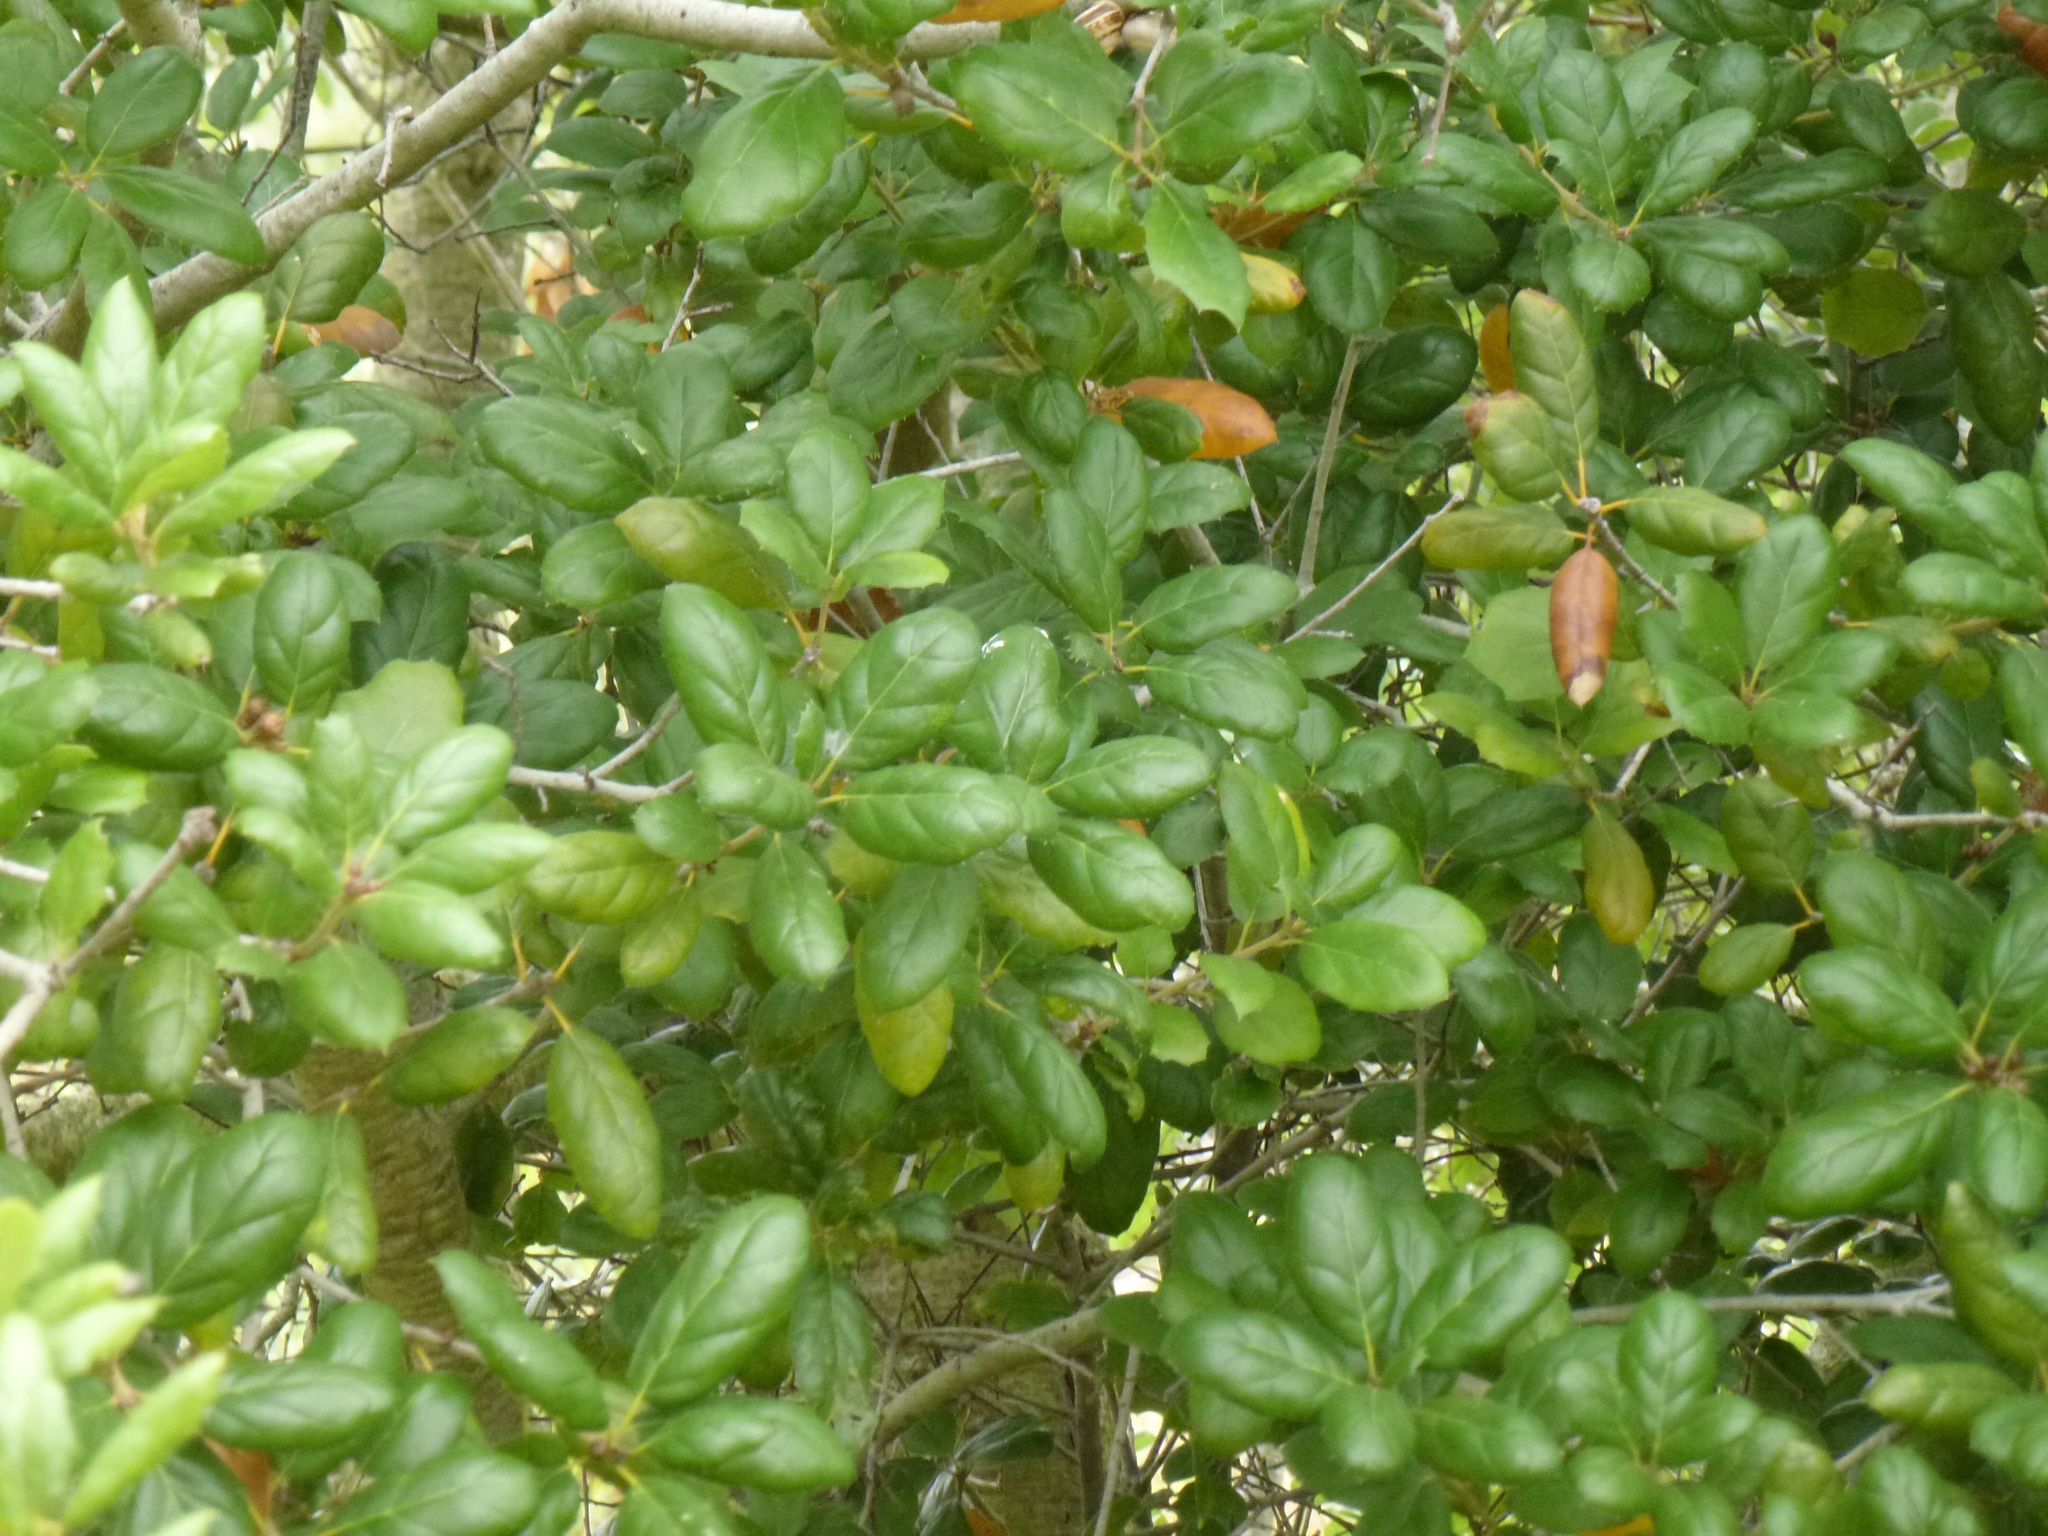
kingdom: Plantae
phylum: Tracheophyta
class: Magnoliopsida
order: Fagales
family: Fagaceae
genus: Quercus
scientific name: Quercus agrifolia
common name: California live oak
